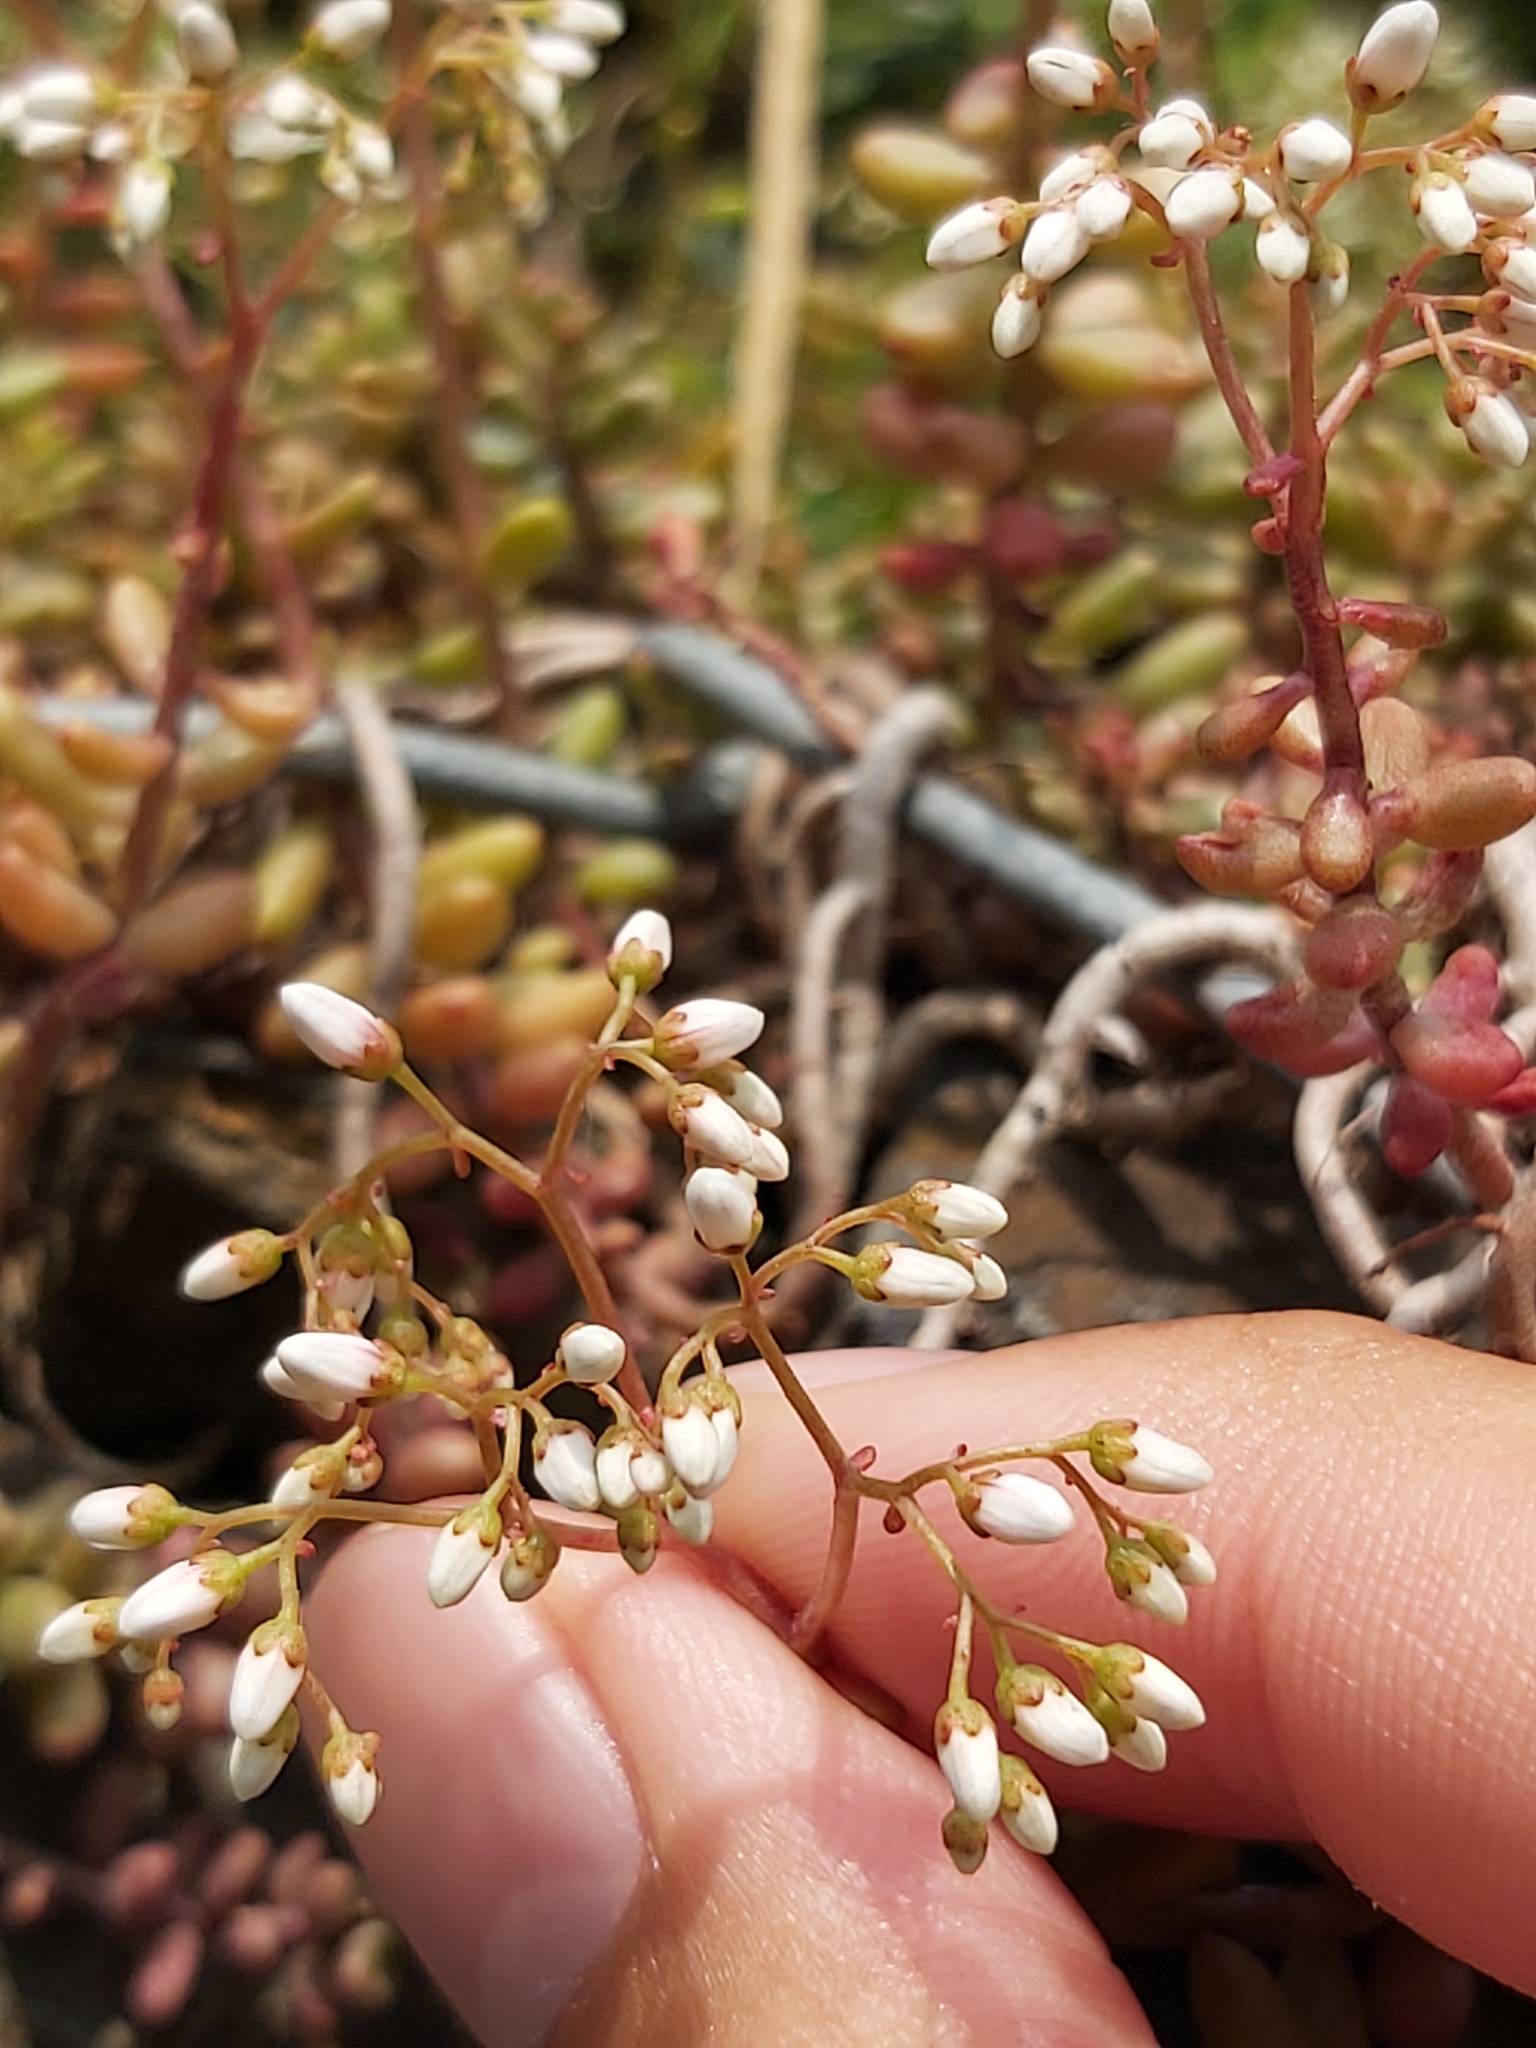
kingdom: Plantae
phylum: Tracheophyta
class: Magnoliopsida
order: Saxifragales
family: Crassulaceae
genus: Sedum
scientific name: Sedum album
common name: White stonecrop
